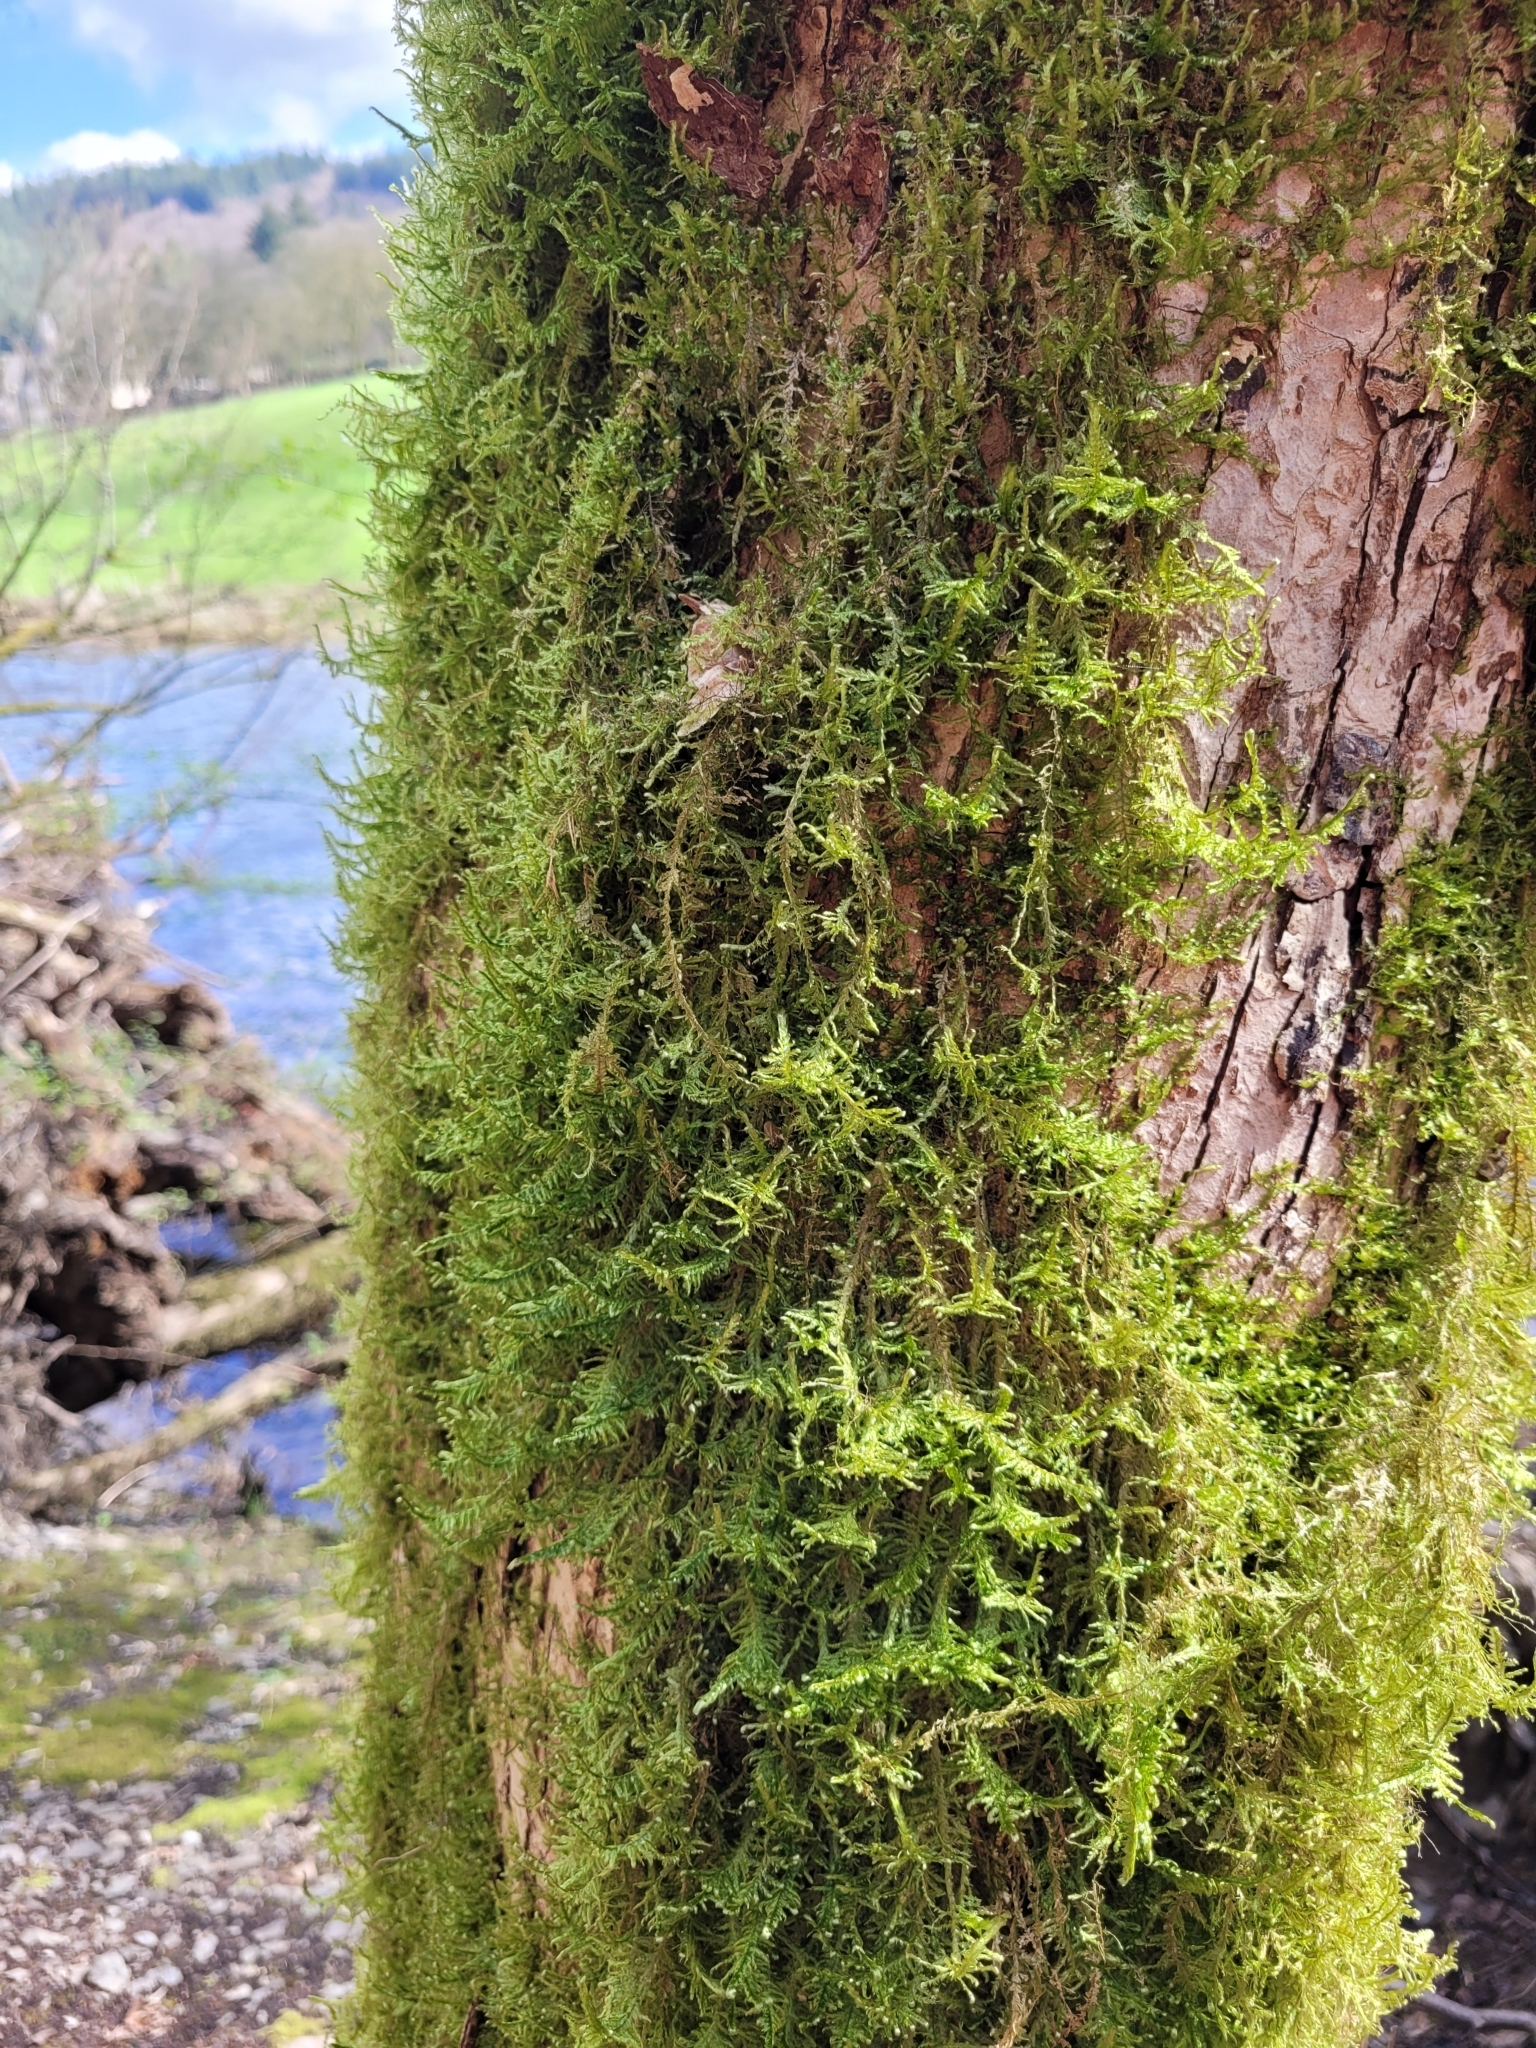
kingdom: Plantae
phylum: Bryophyta
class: Bryopsida
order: Hypnales
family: Neckeraceae
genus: Alleniella
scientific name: Alleniella complanata
